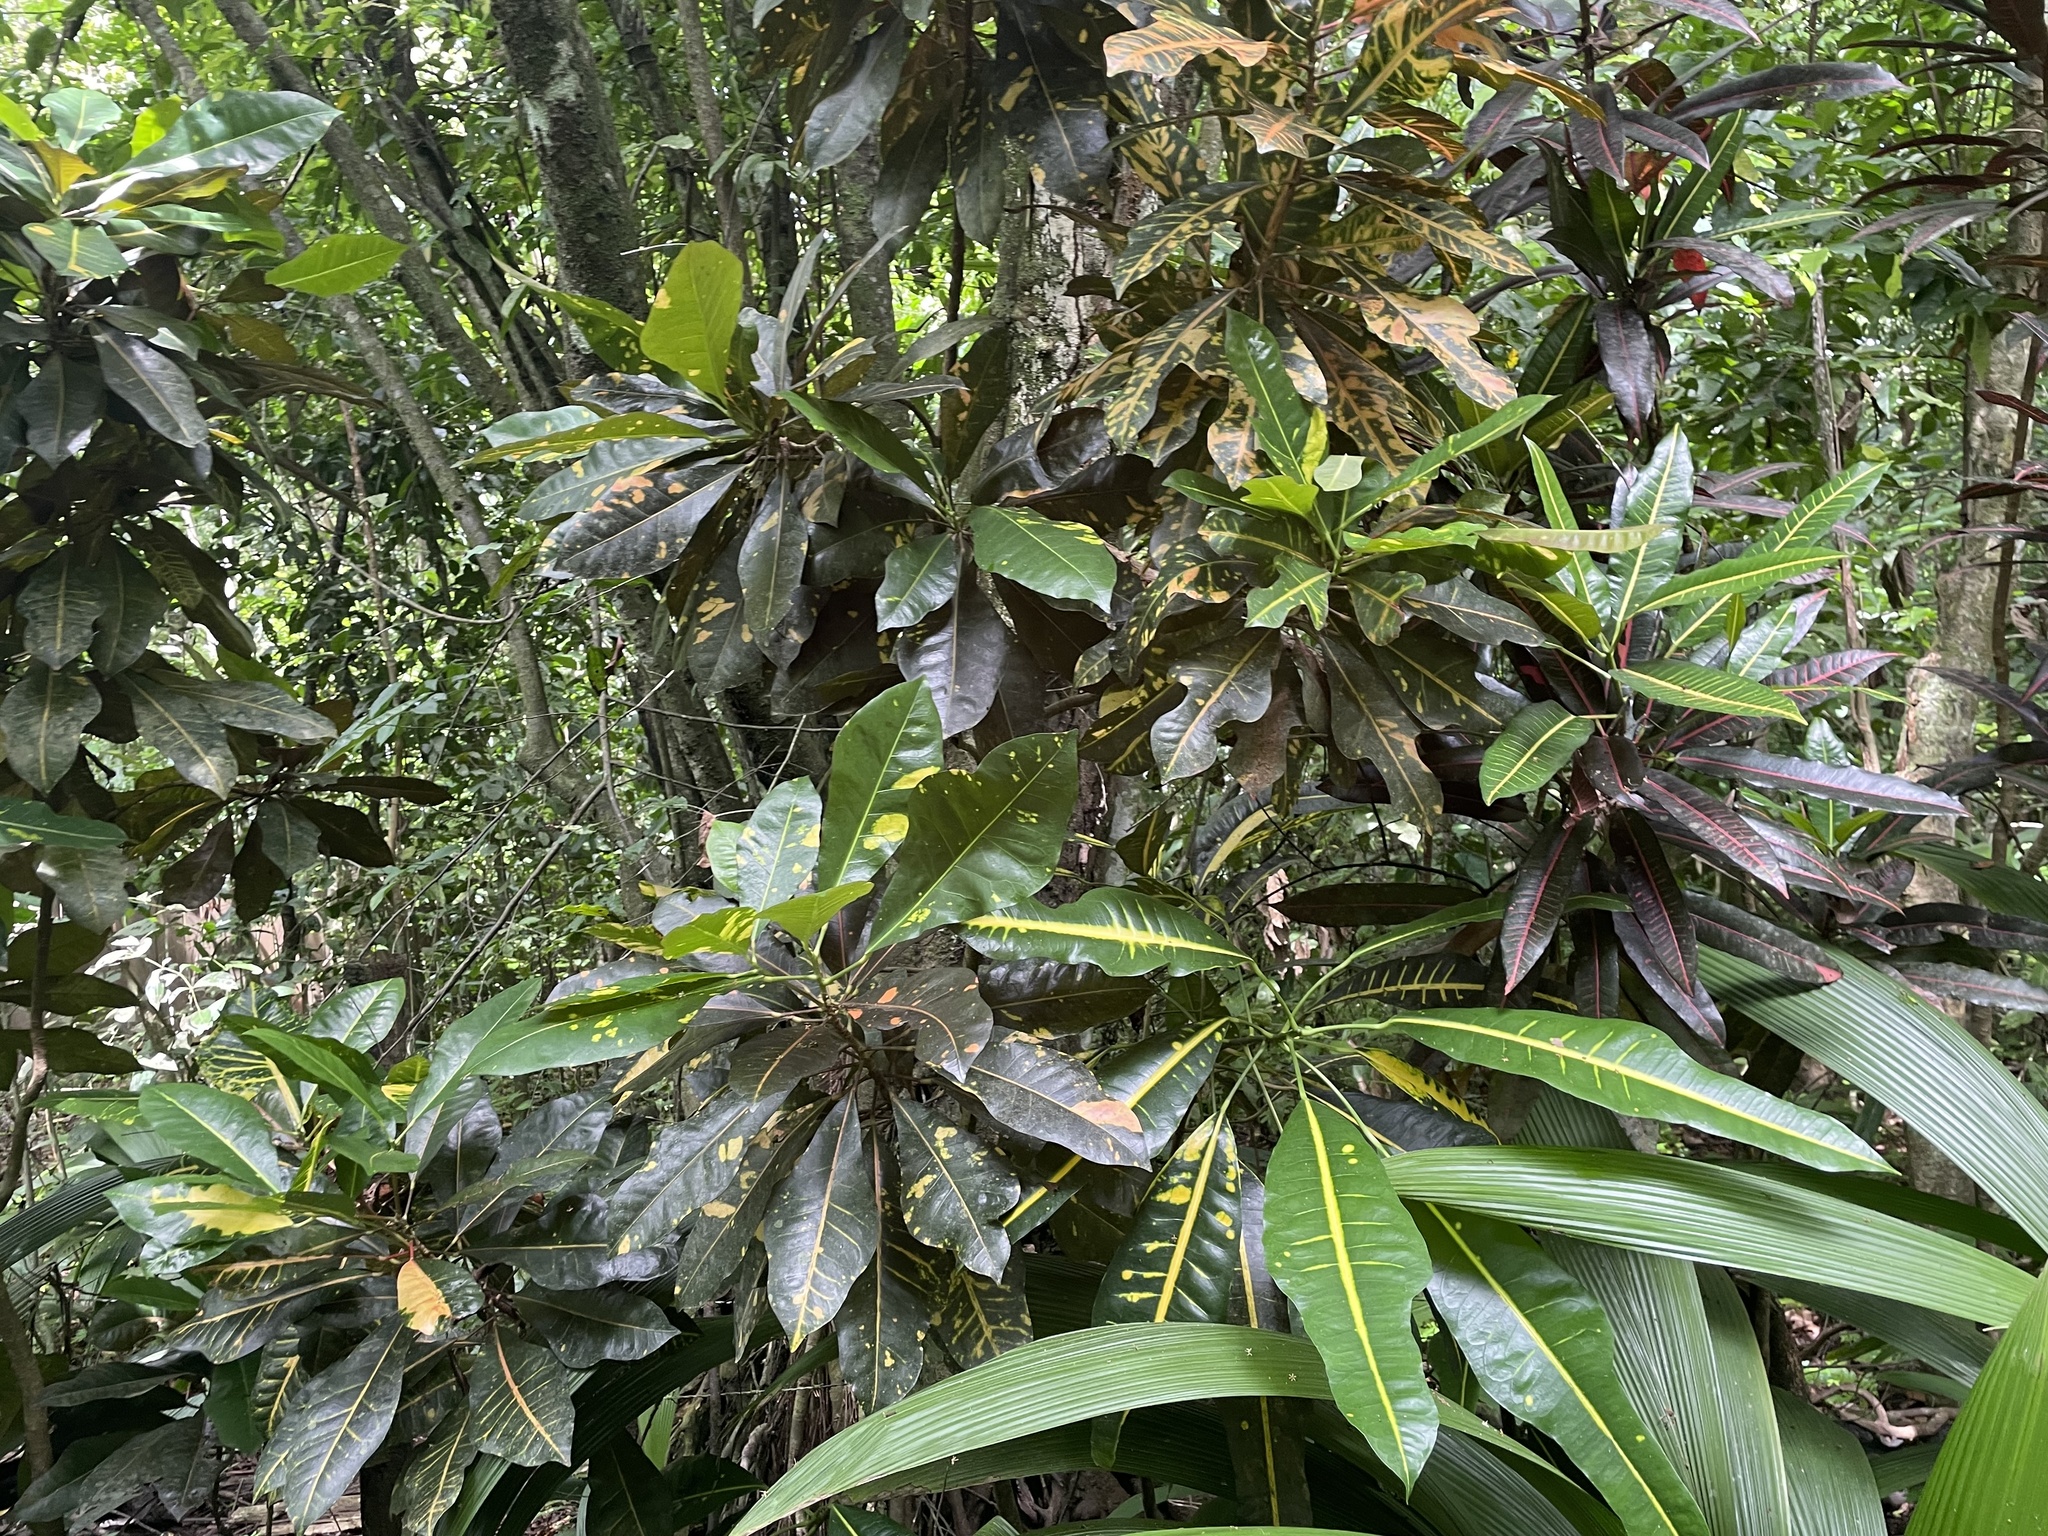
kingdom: Plantae
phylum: Tracheophyta
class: Magnoliopsida
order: Malpighiales
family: Euphorbiaceae
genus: Codiaeum
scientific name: Codiaeum variegatum
